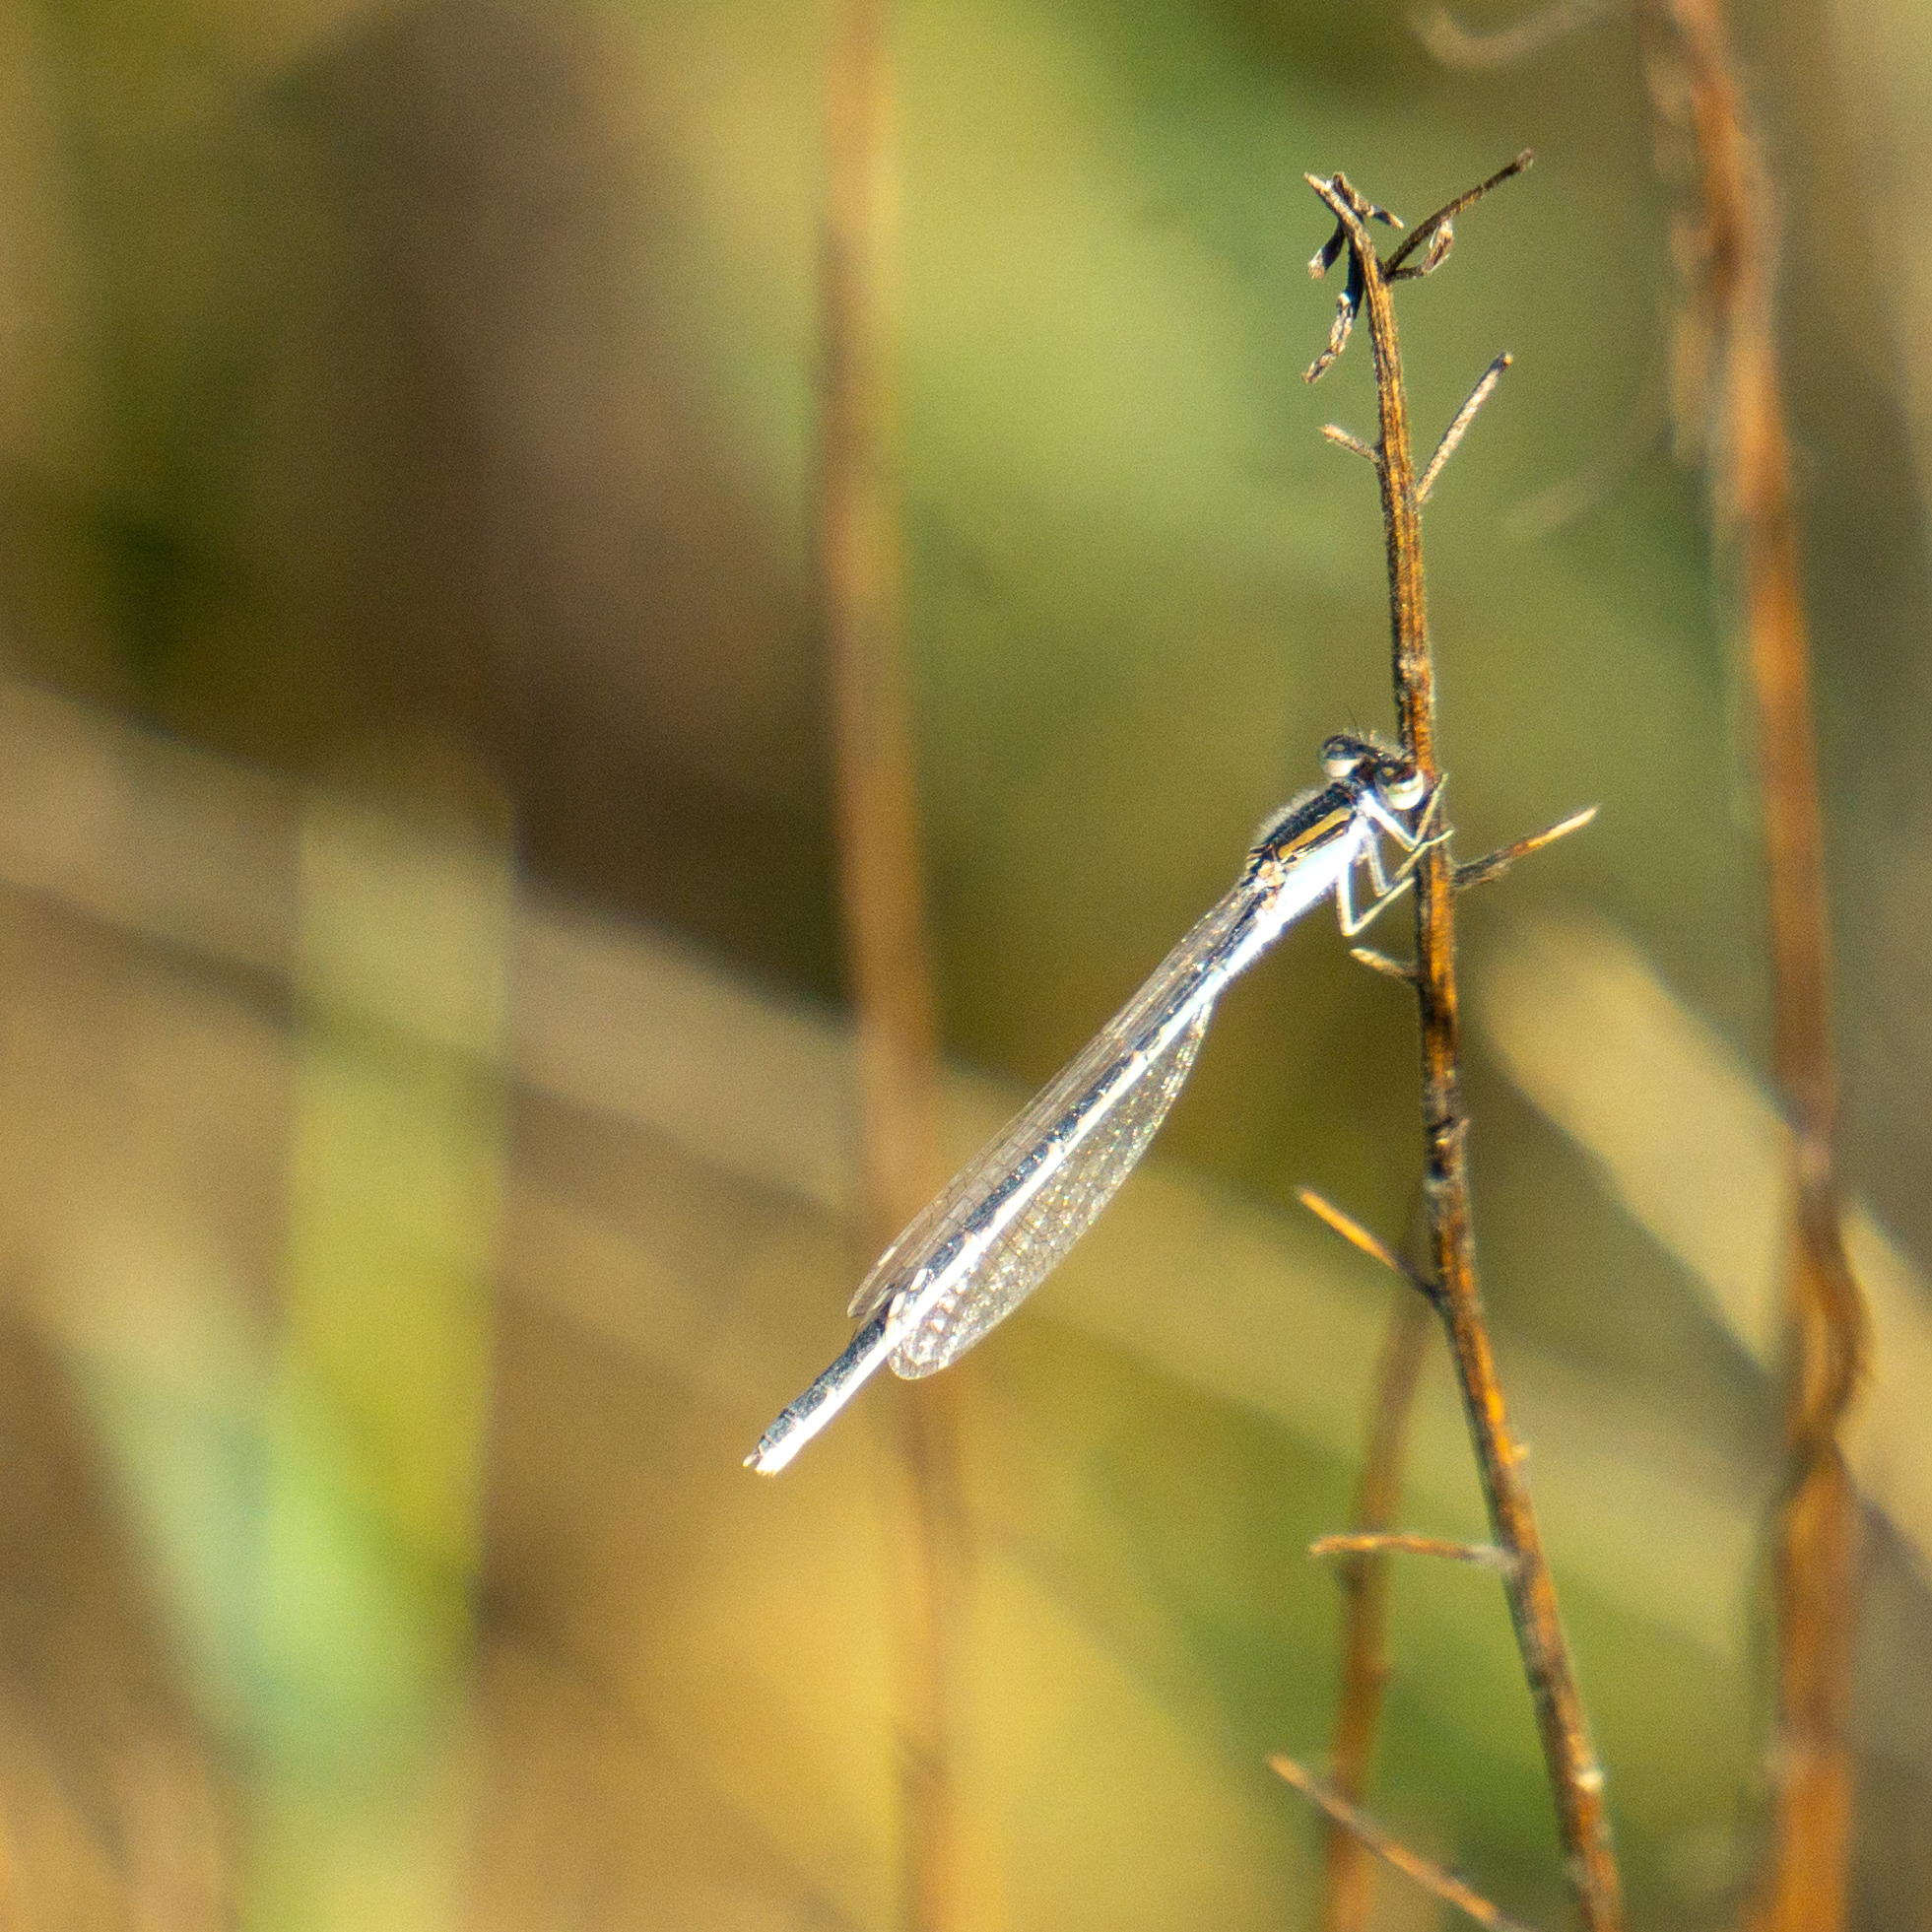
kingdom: Animalia
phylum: Arthropoda
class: Insecta
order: Odonata
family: Coenagrionidae
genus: Enallagma
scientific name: Enallagma civile
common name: Damselfly
